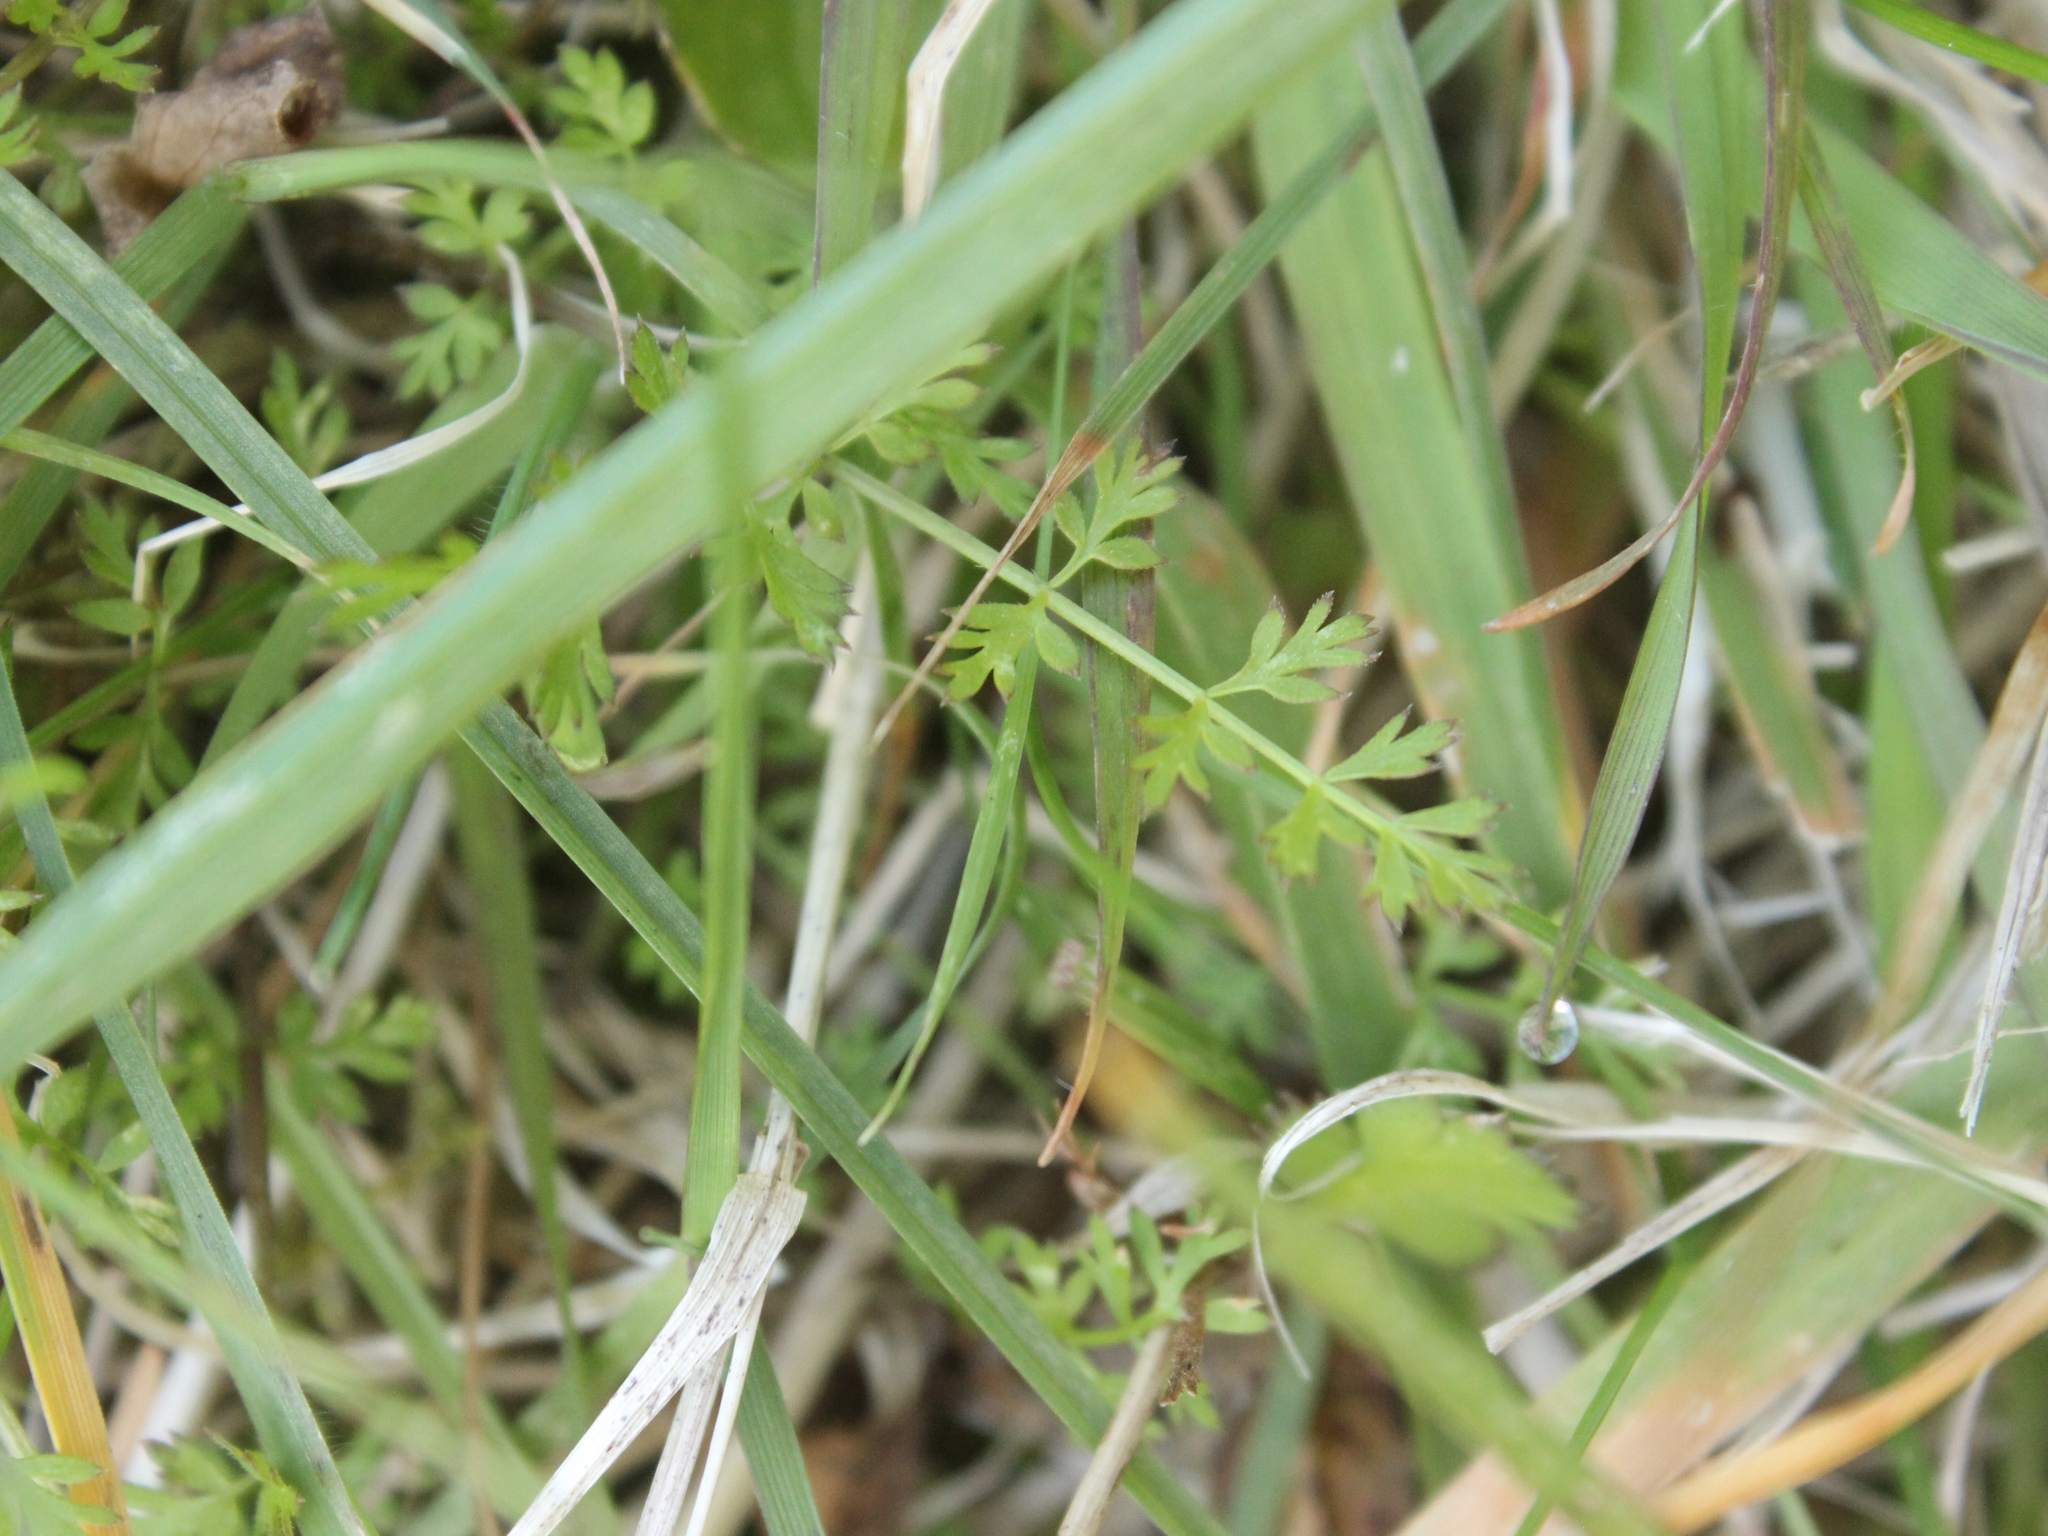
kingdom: Plantae
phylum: Tracheophyta
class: Magnoliopsida
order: Apiales
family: Apiaceae
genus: Chaerophyllum
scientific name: Chaerophyllum colensoi
